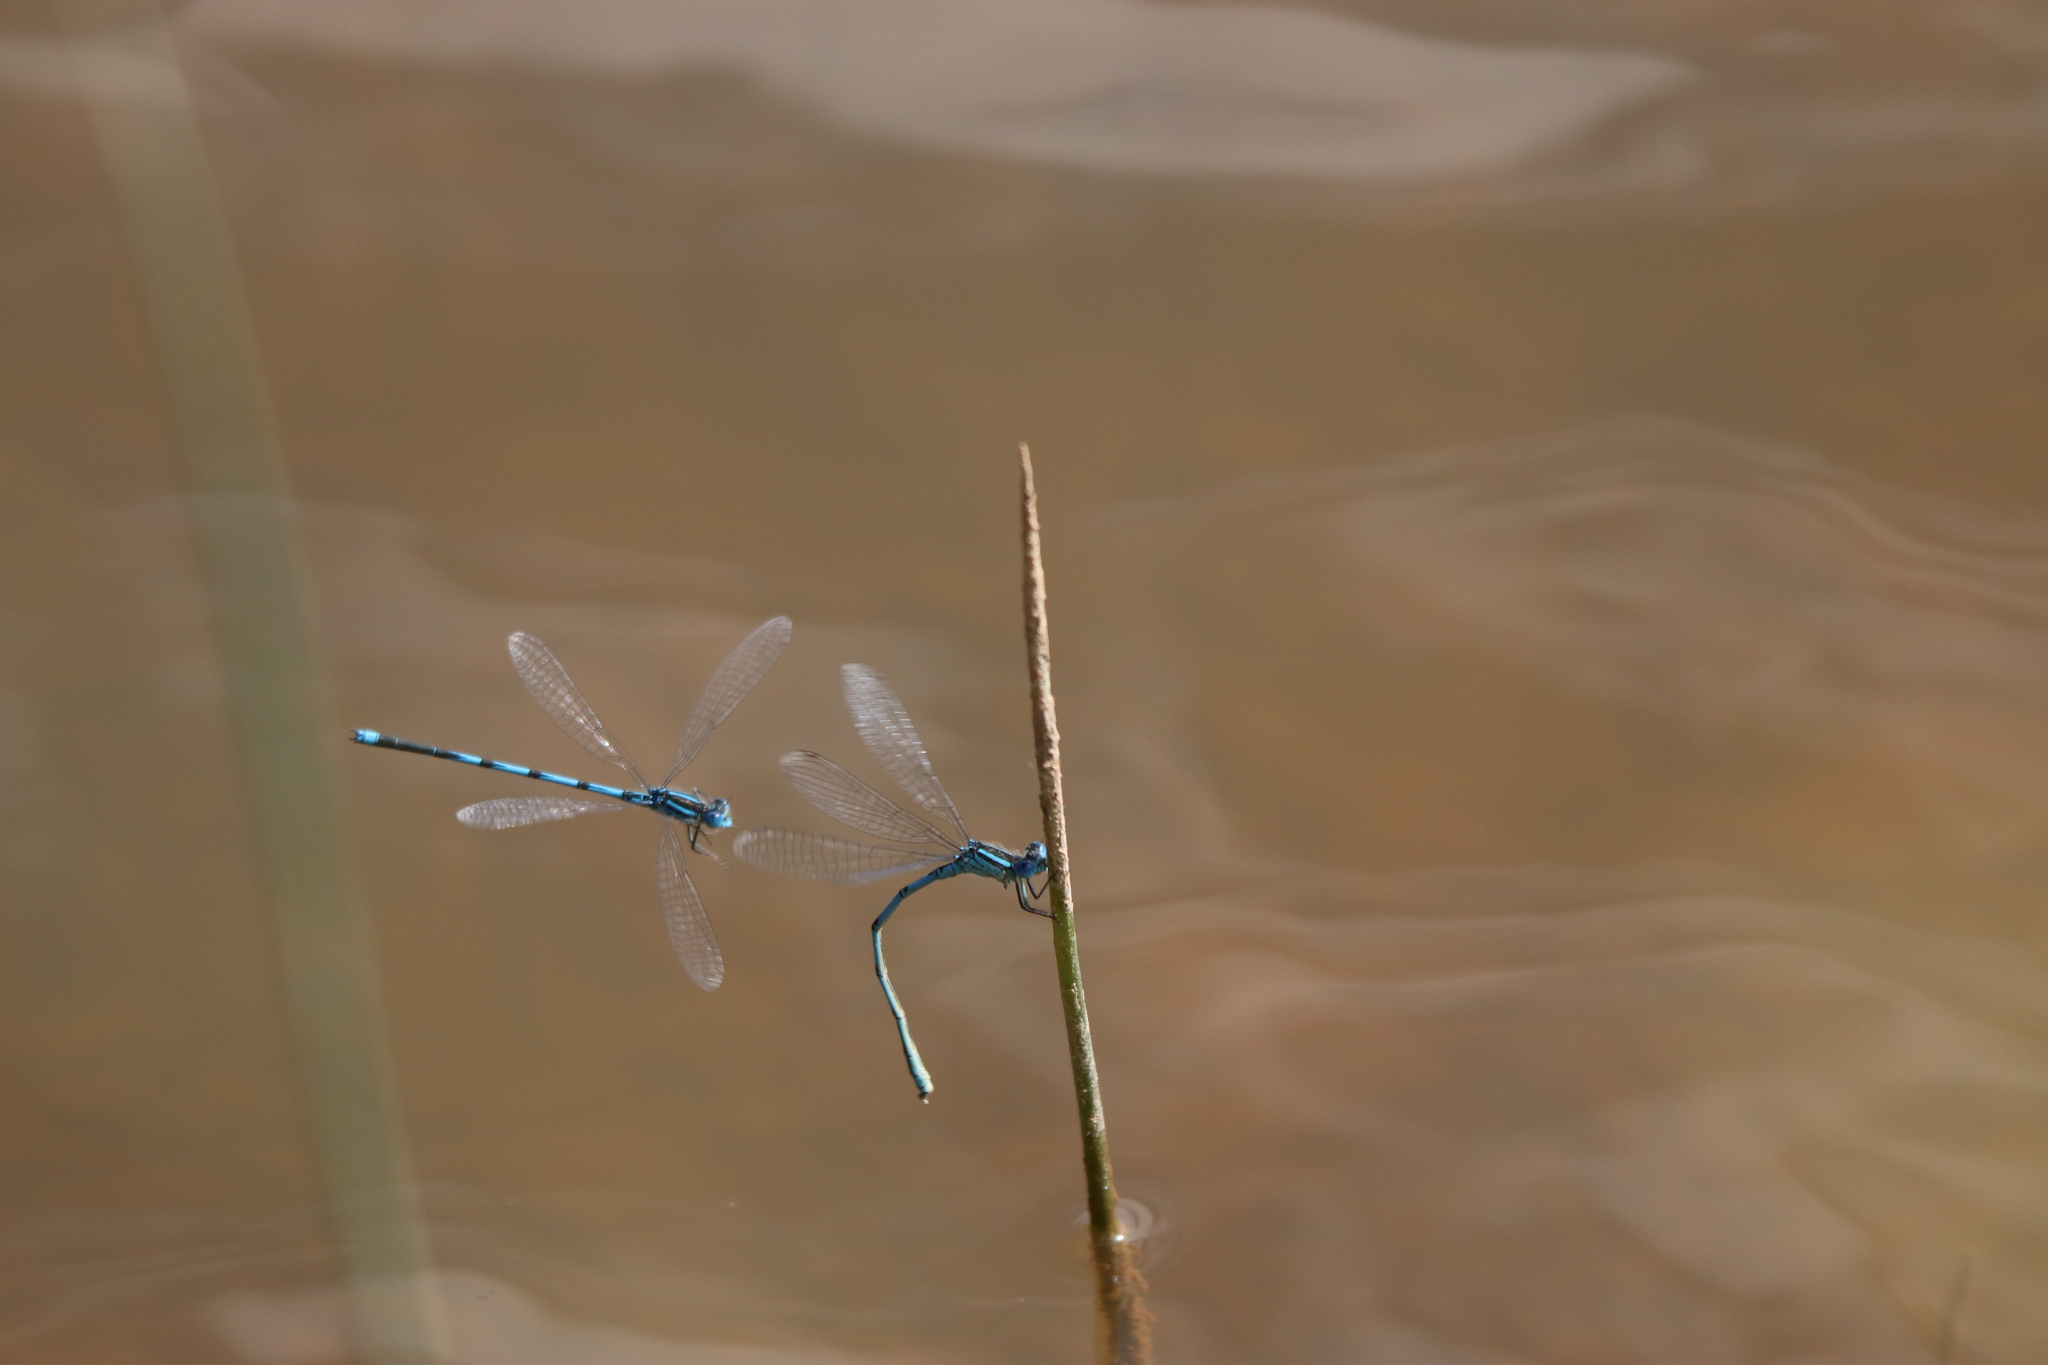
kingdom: Animalia
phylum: Arthropoda
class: Insecta
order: Odonata
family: Coenagrionidae
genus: Erythromma
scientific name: Erythromma lindenii
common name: Blue-eye
